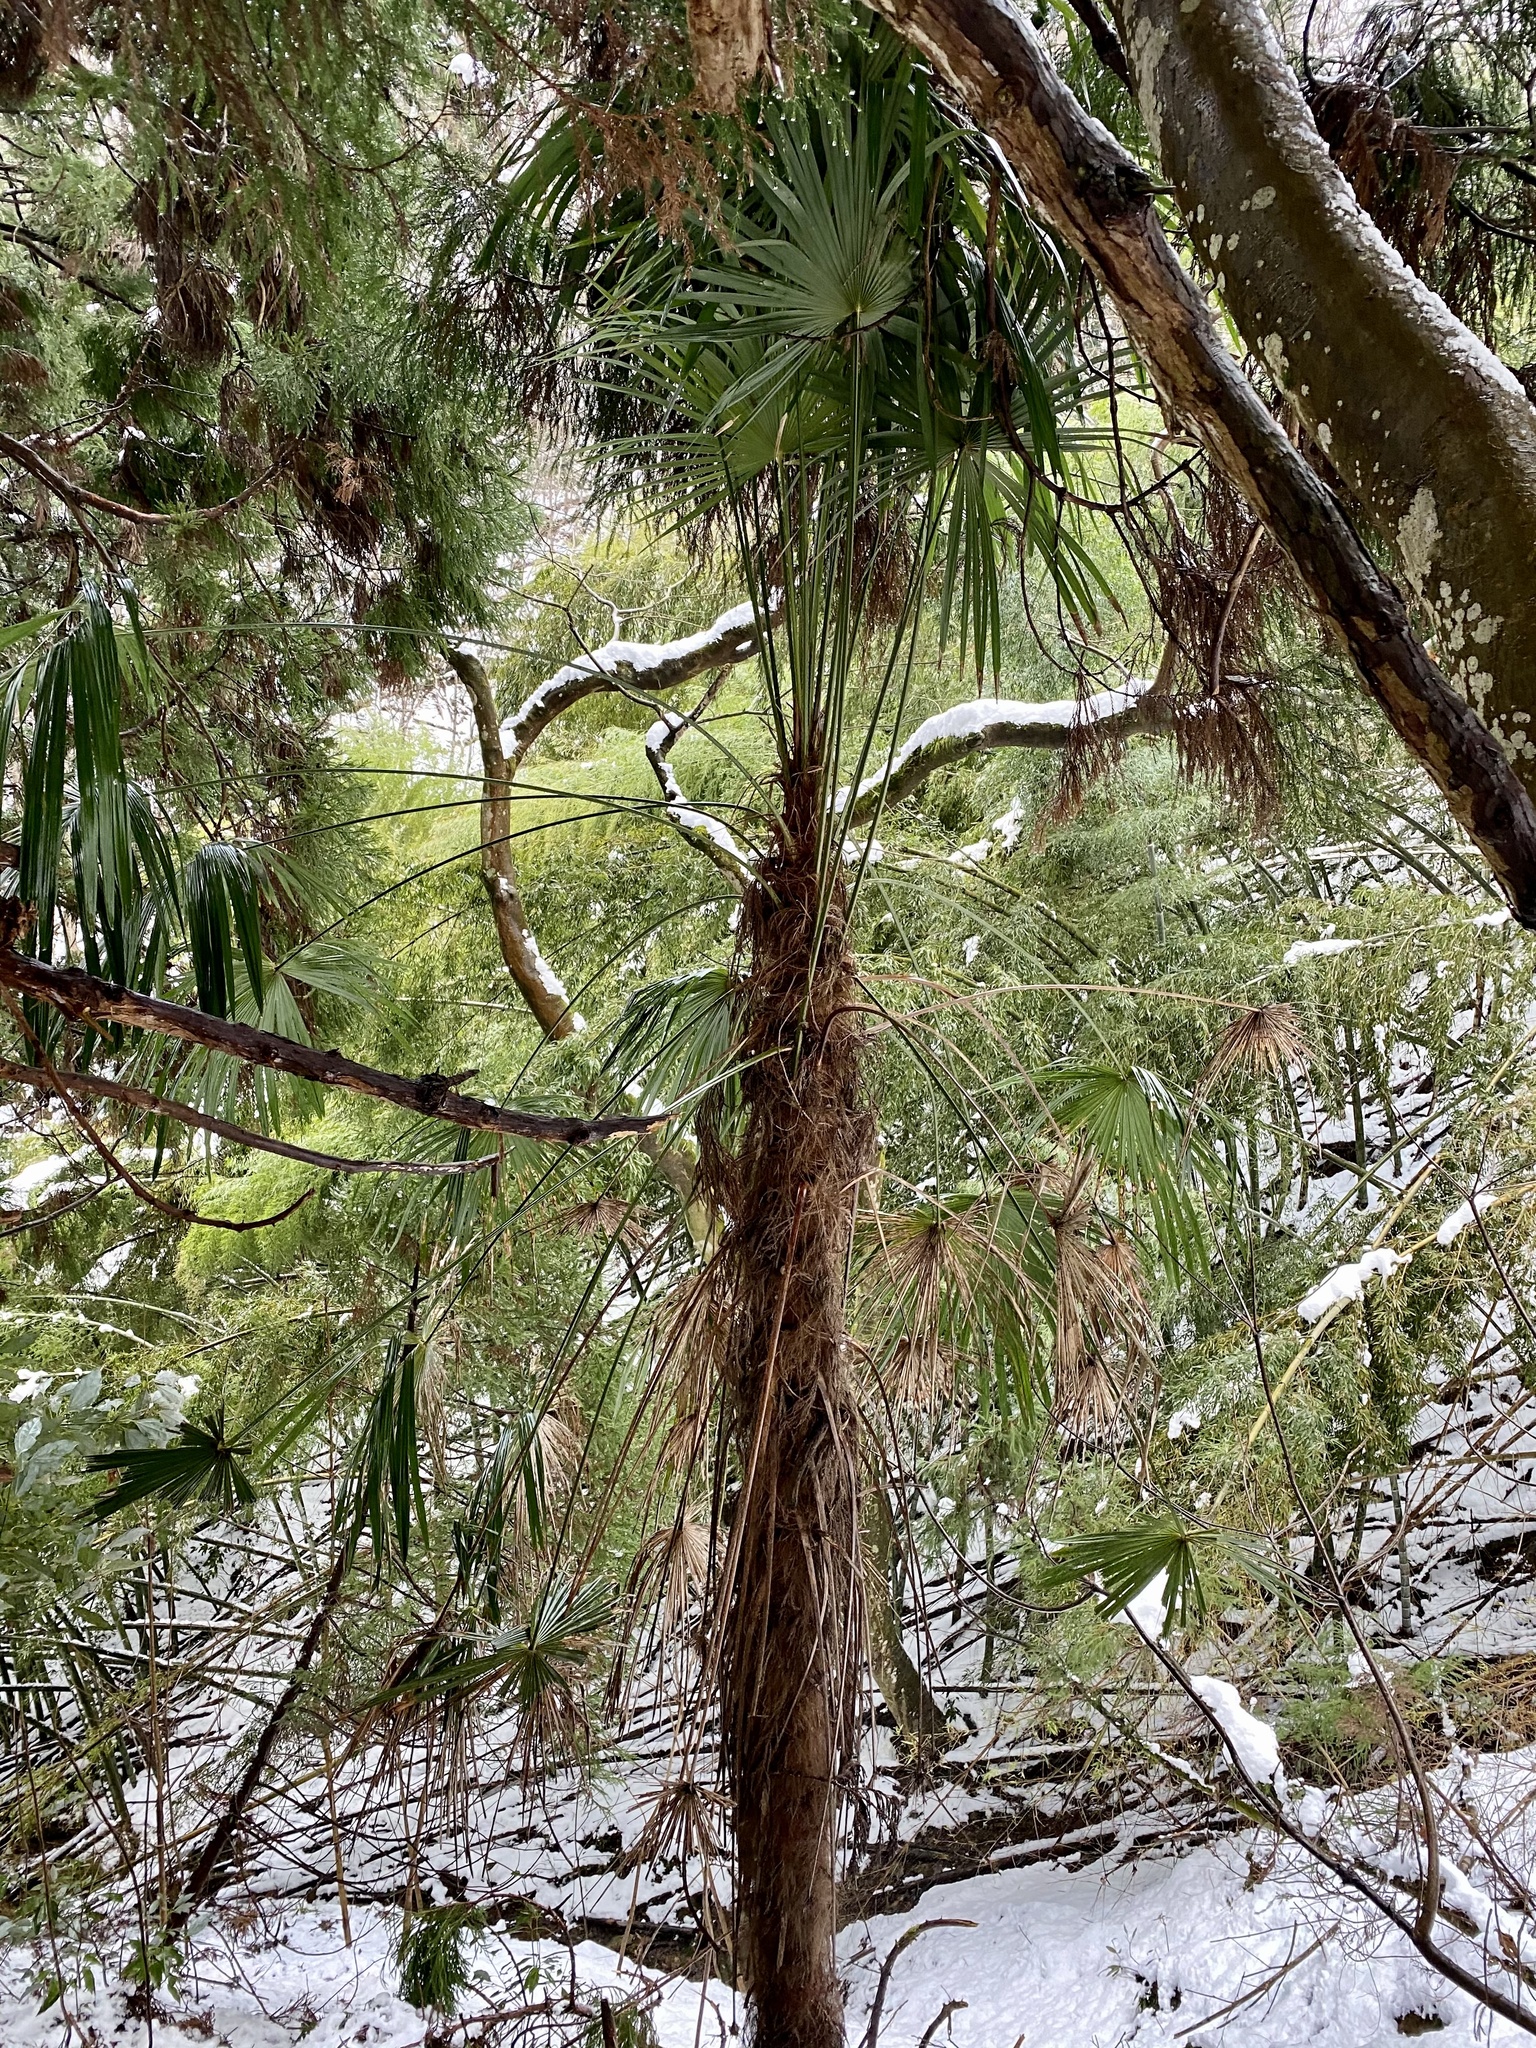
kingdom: Plantae
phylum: Tracheophyta
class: Liliopsida
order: Arecales
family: Arecaceae
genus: Trachycarpus
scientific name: Trachycarpus fortunei
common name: Chusan palm
